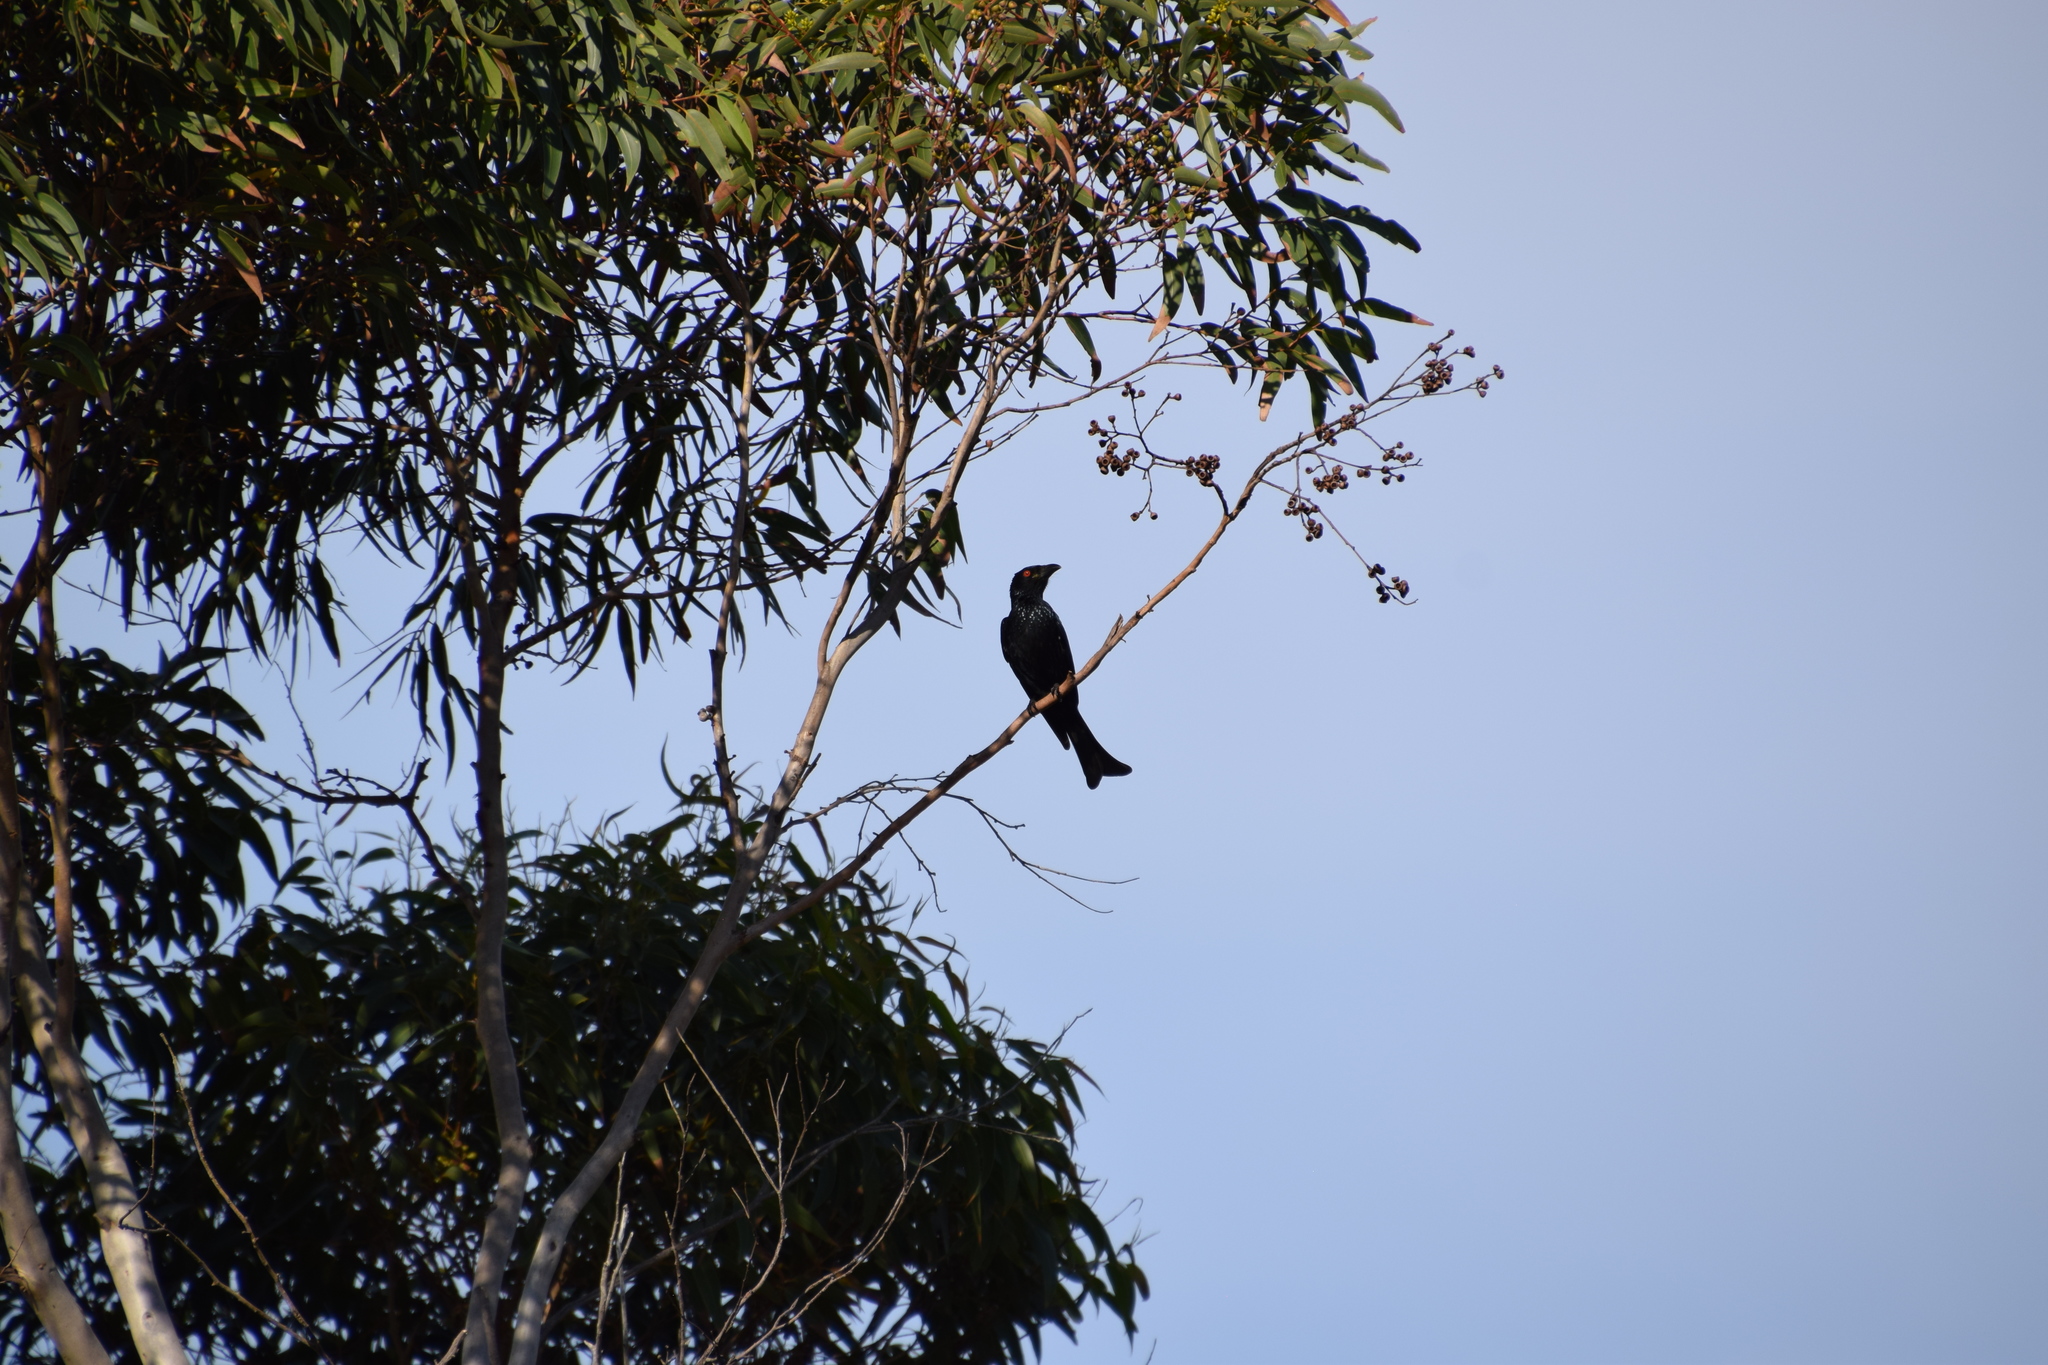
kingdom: Animalia
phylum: Chordata
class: Aves
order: Passeriformes
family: Dicruridae
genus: Dicrurus
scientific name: Dicrurus bracteatus
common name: Spangled drongo
